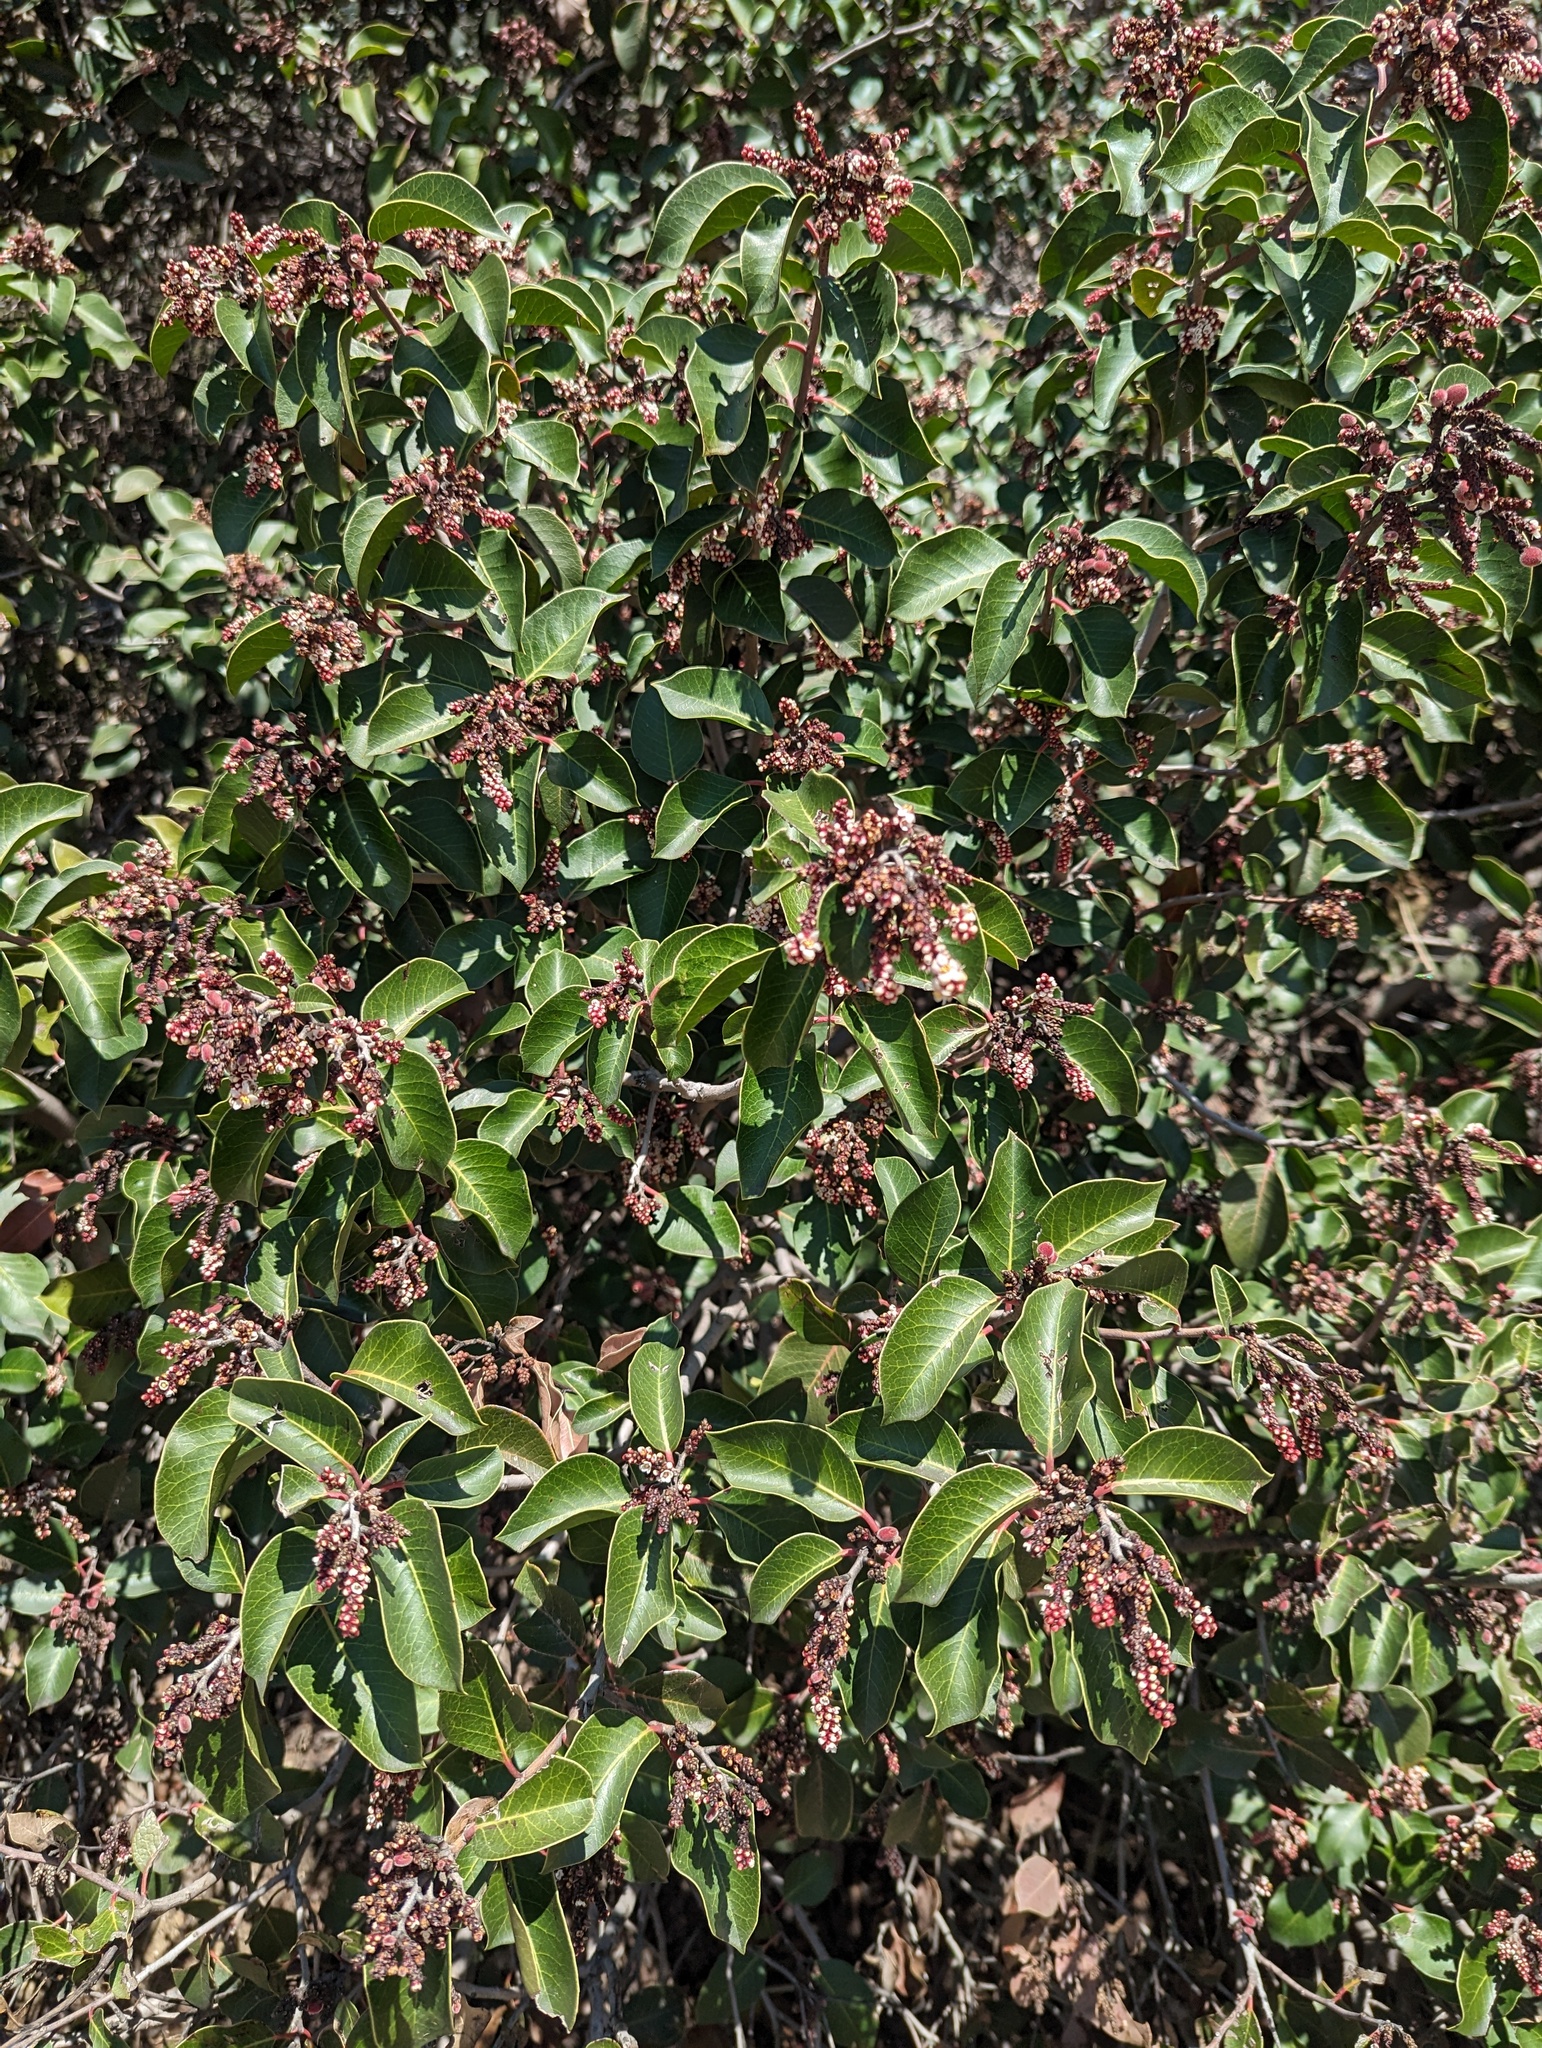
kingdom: Plantae
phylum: Tracheophyta
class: Magnoliopsida
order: Sapindales
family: Anacardiaceae
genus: Rhus
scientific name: Rhus ovata
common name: Sugar sumac
